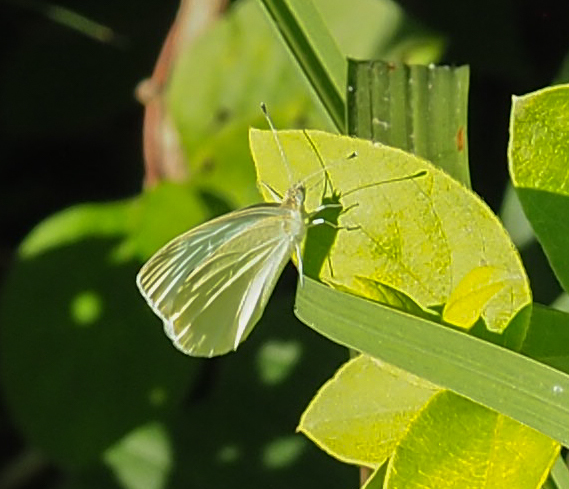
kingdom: Animalia
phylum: Arthropoda
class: Insecta
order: Lepidoptera
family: Pieridae
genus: Pieris
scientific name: Pieris rapae
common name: Small white
